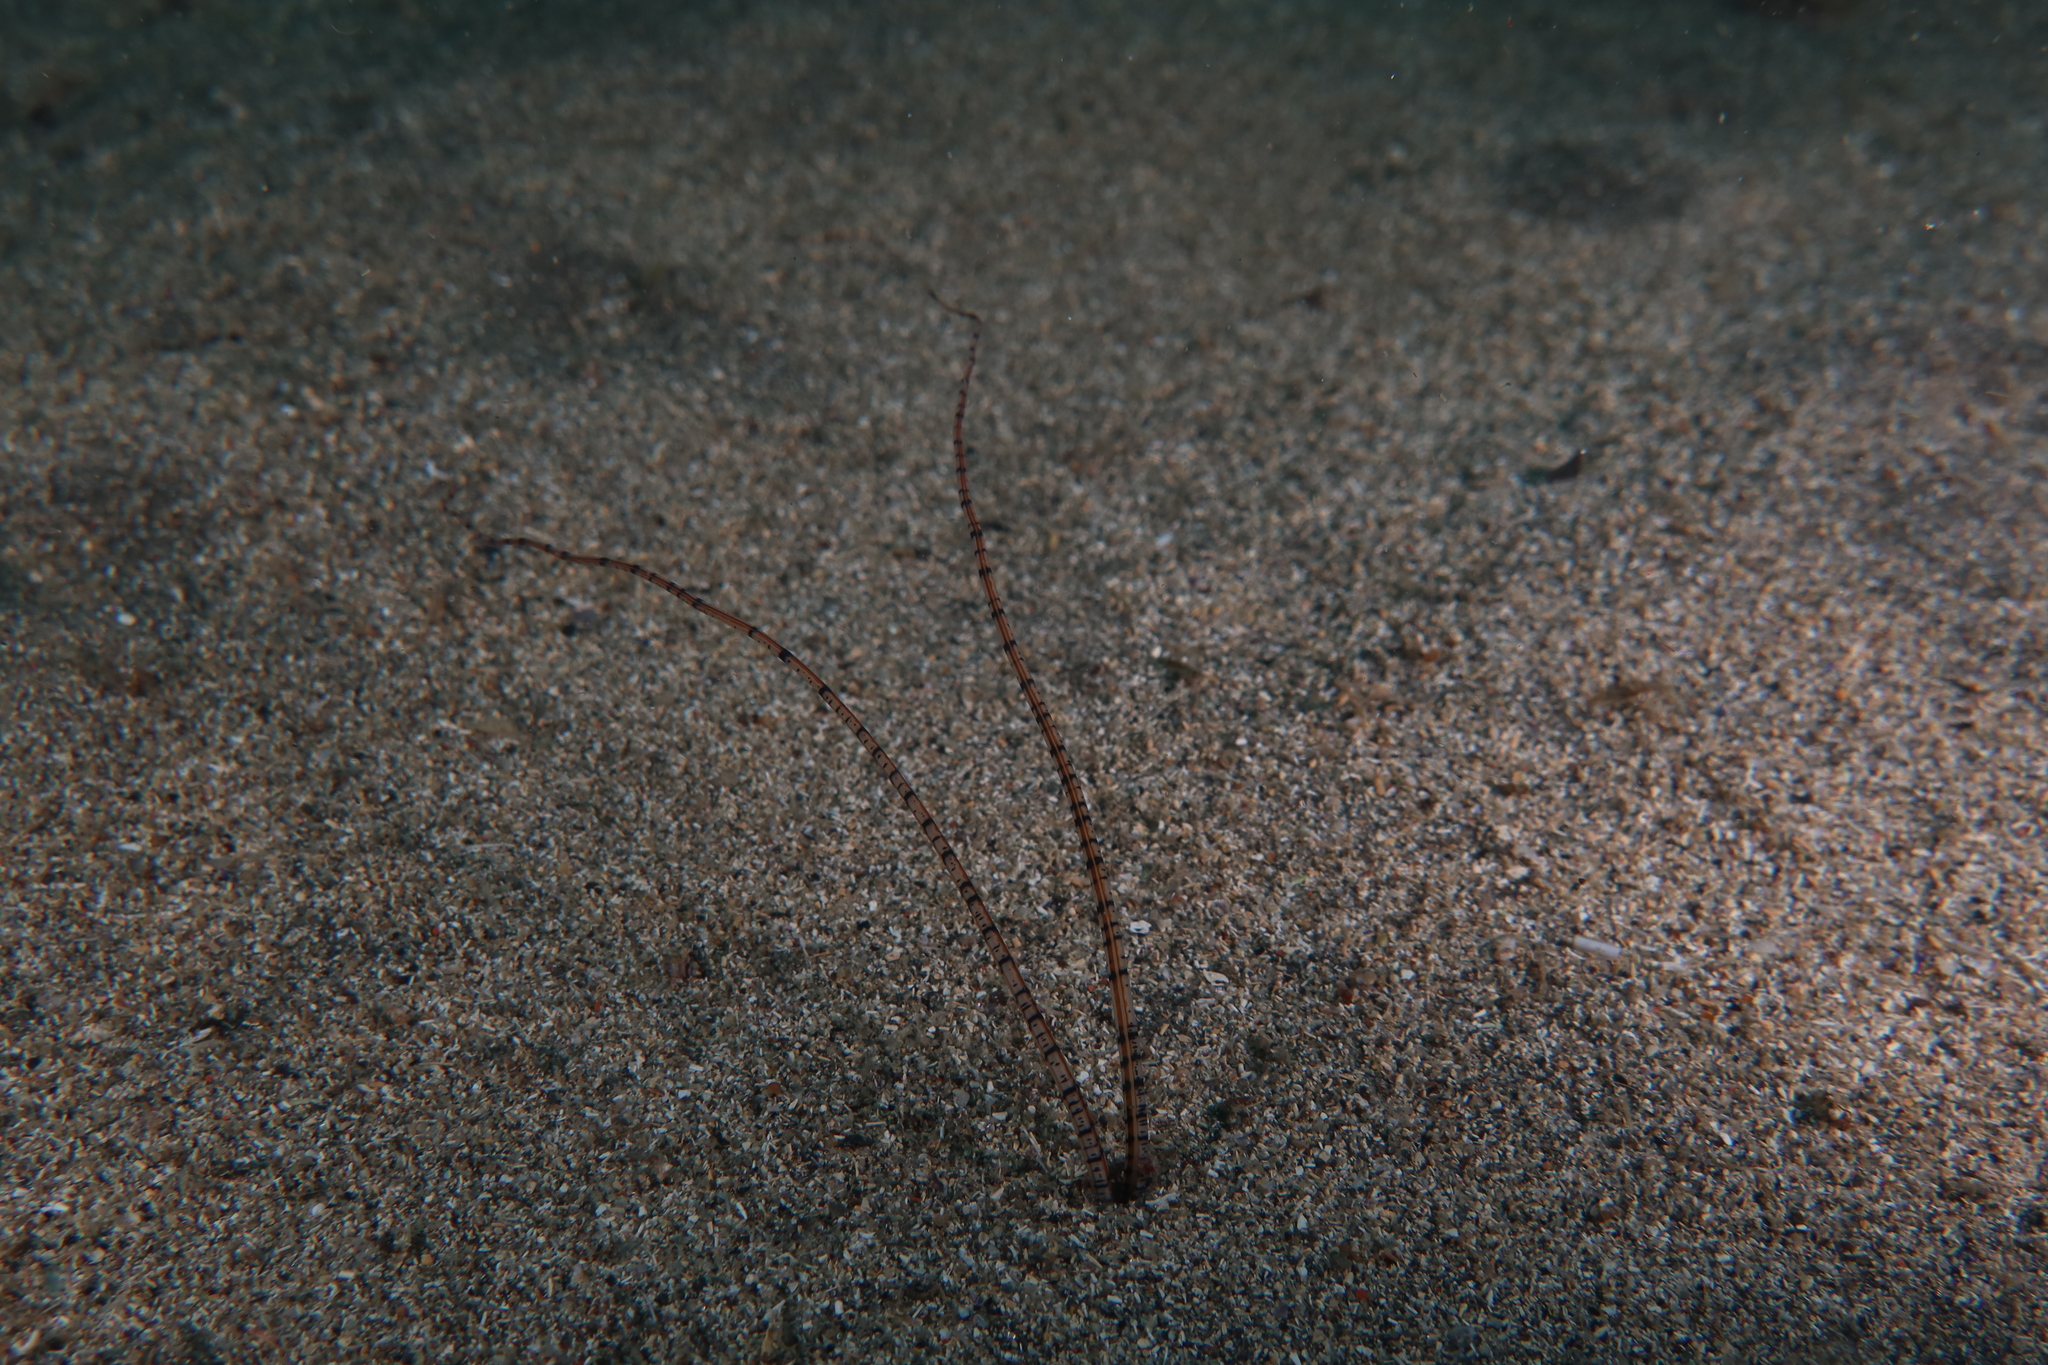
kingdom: Animalia
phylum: Annelida
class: Polychaeta
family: Chaetopteridae
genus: Mesochaetopterus
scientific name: Mesochaetopterus rogeri
